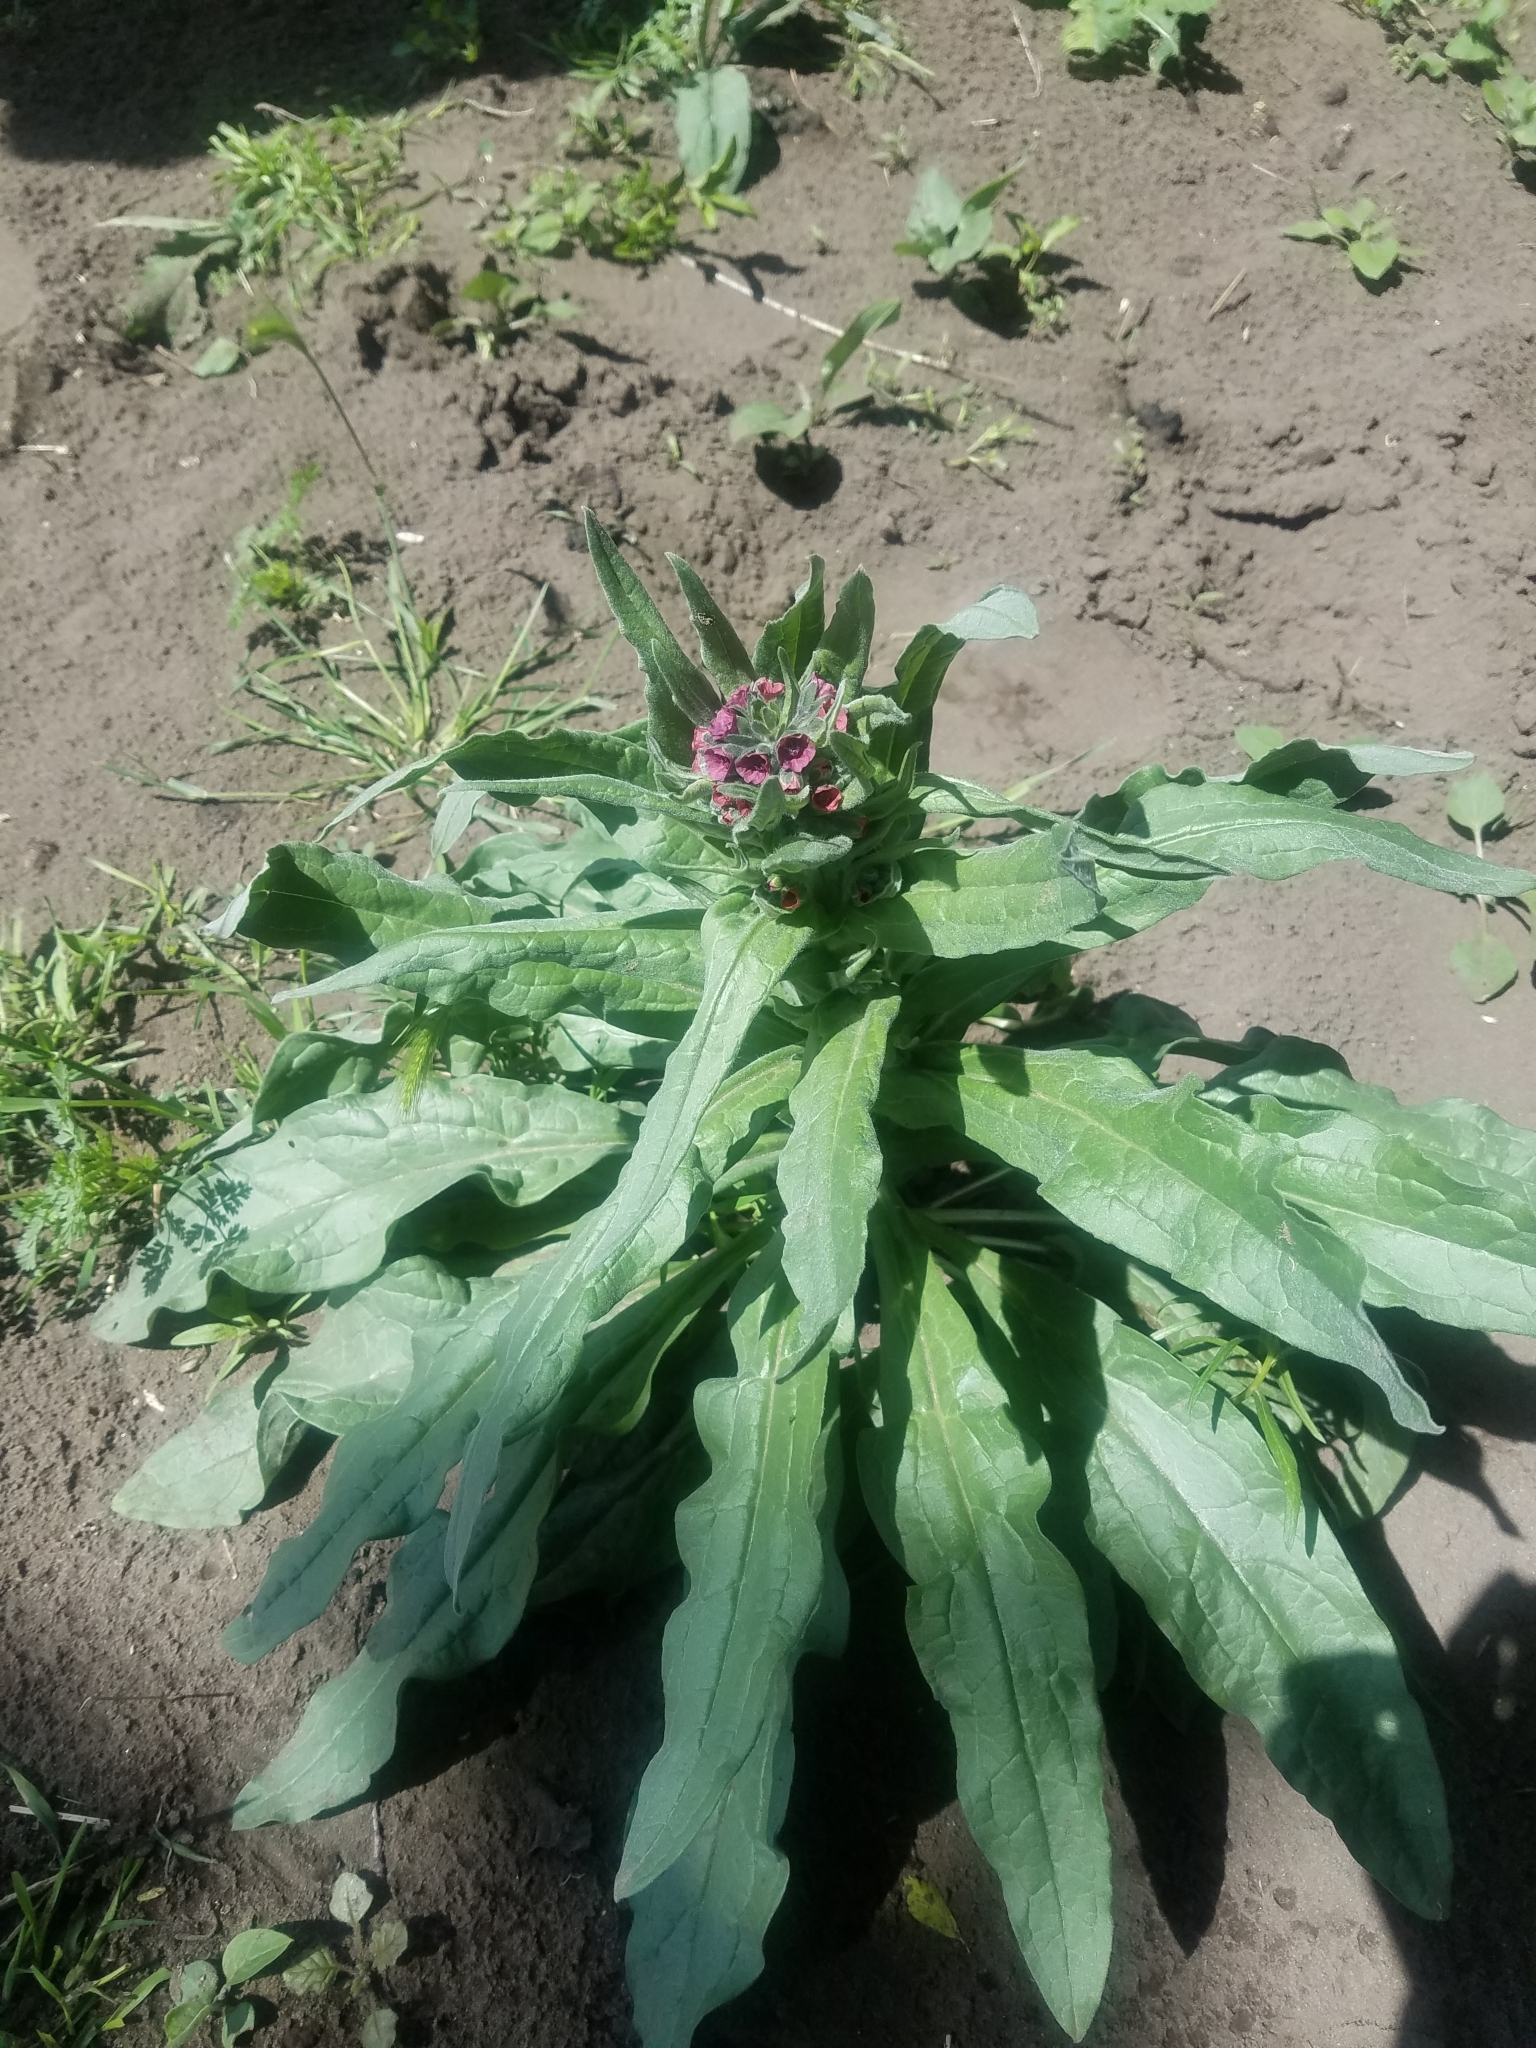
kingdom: Plantae
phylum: Tracheophyta
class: Magnoliopsida
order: Boraginales
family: Boraginaceae
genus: Cynoglossum
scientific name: Cynoglossum officinale
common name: Hound's-tongue
